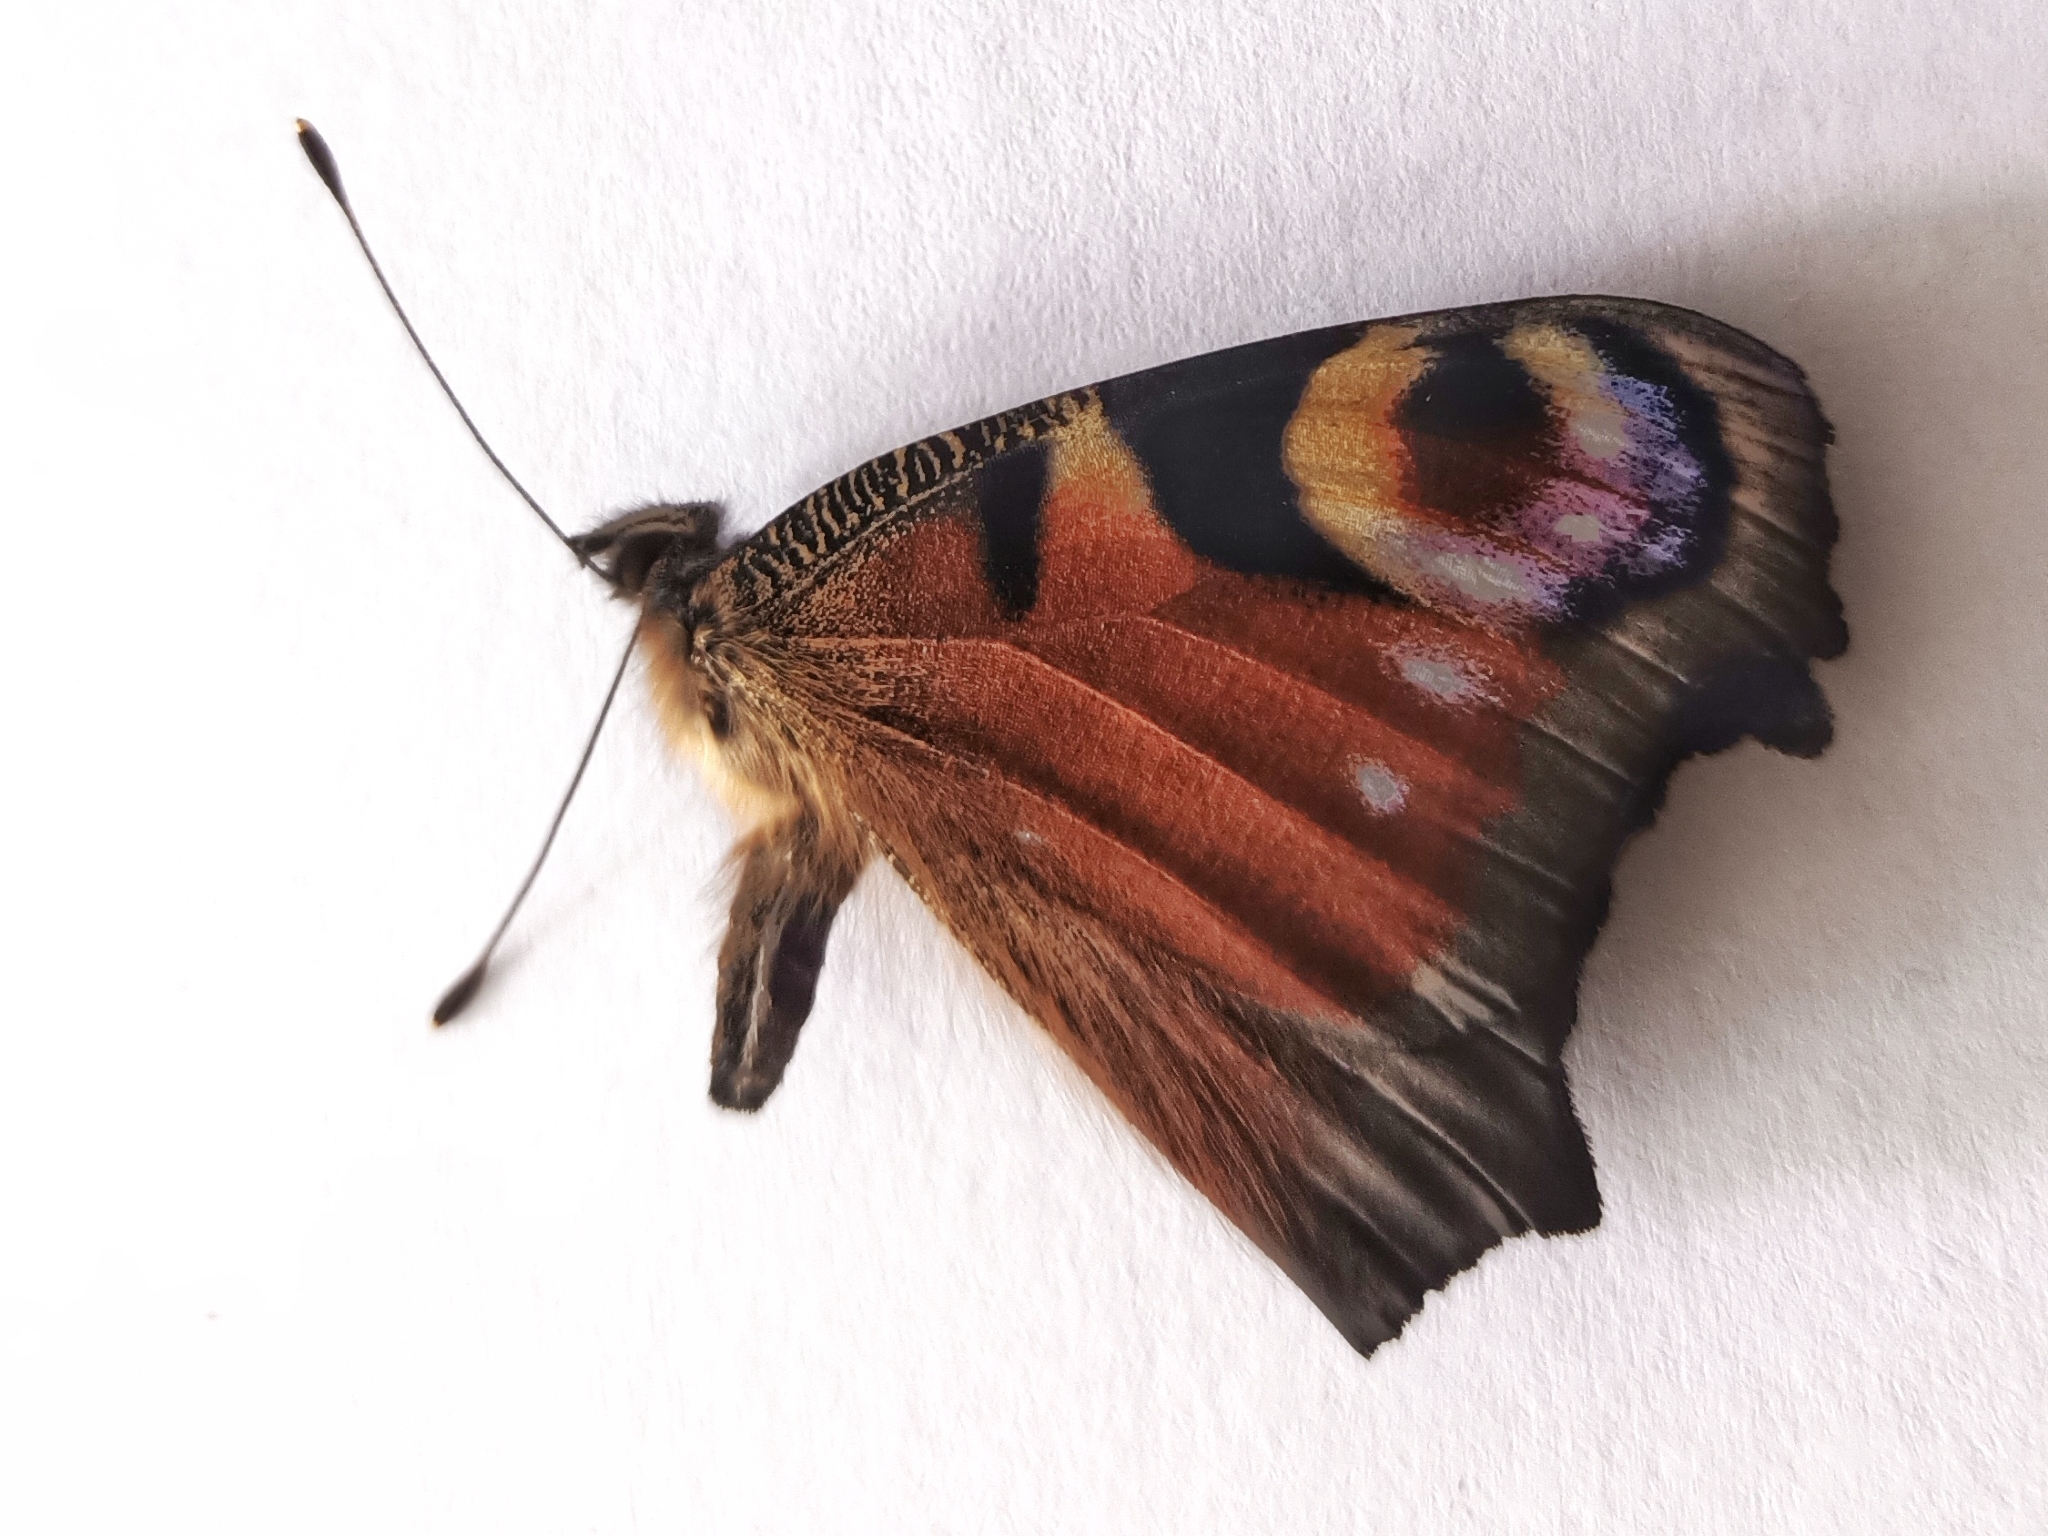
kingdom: Animalia
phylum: Arthropoda
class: Insecta
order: Lepidoptera
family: Nymphalidae
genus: Aglais
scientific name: Aglais io
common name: Peacock
